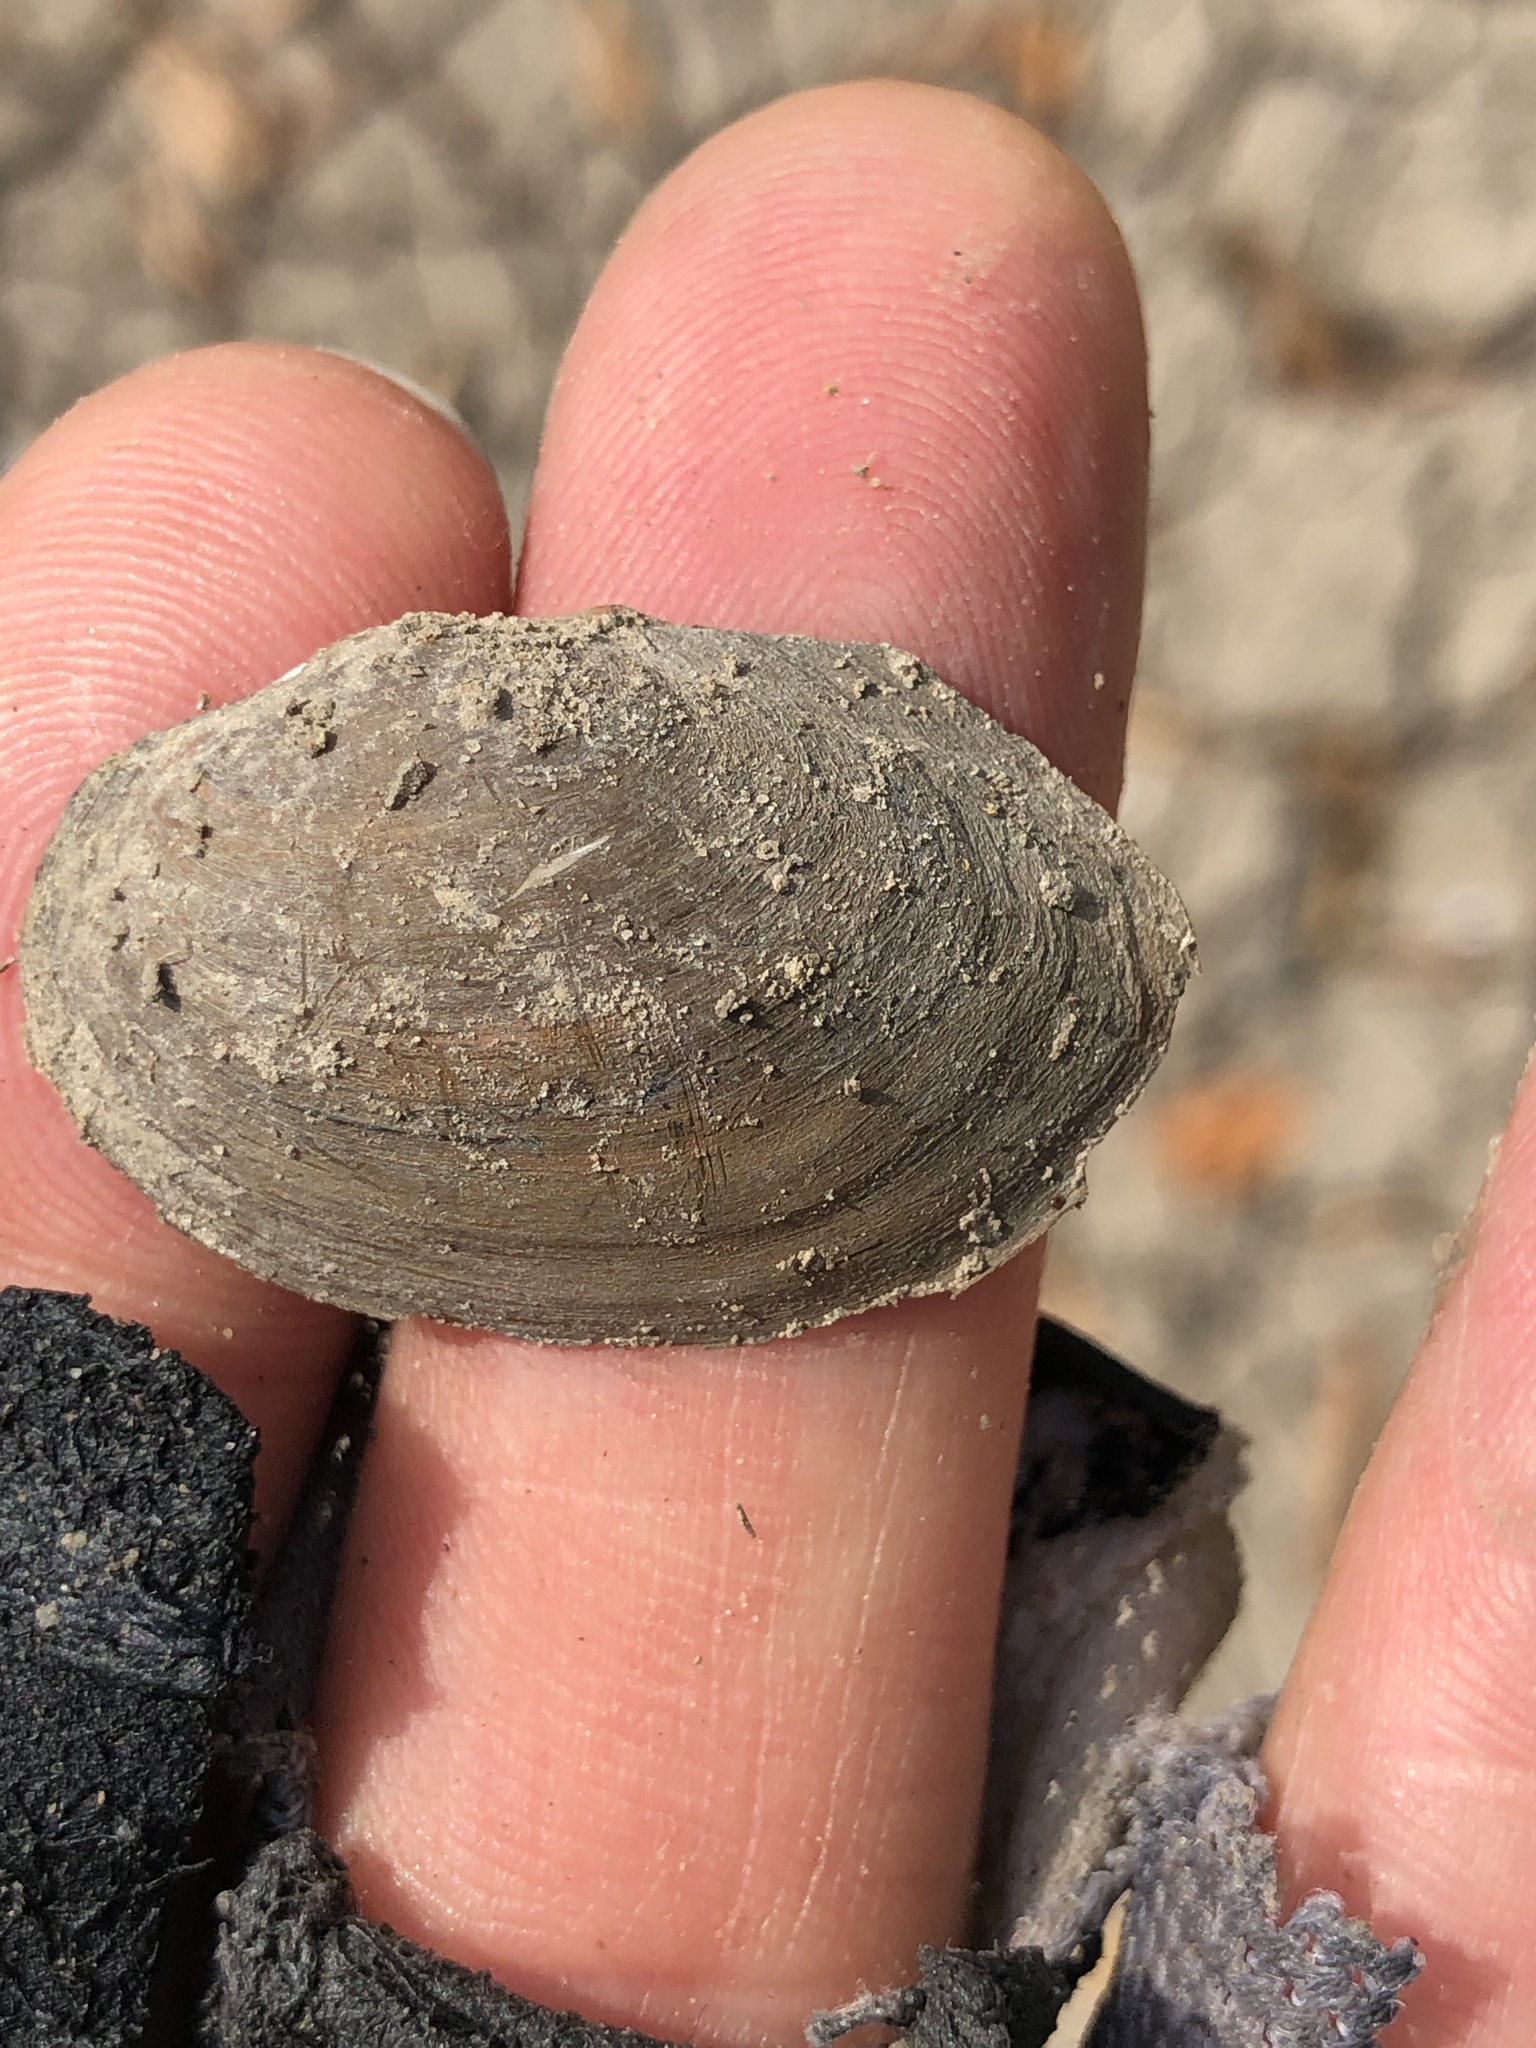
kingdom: Animalia
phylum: Mollusca
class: Bivalvia
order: Unionida
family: Unionidae
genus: Toxolasma
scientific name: Toxolasma texasiense
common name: Texas lilliput
